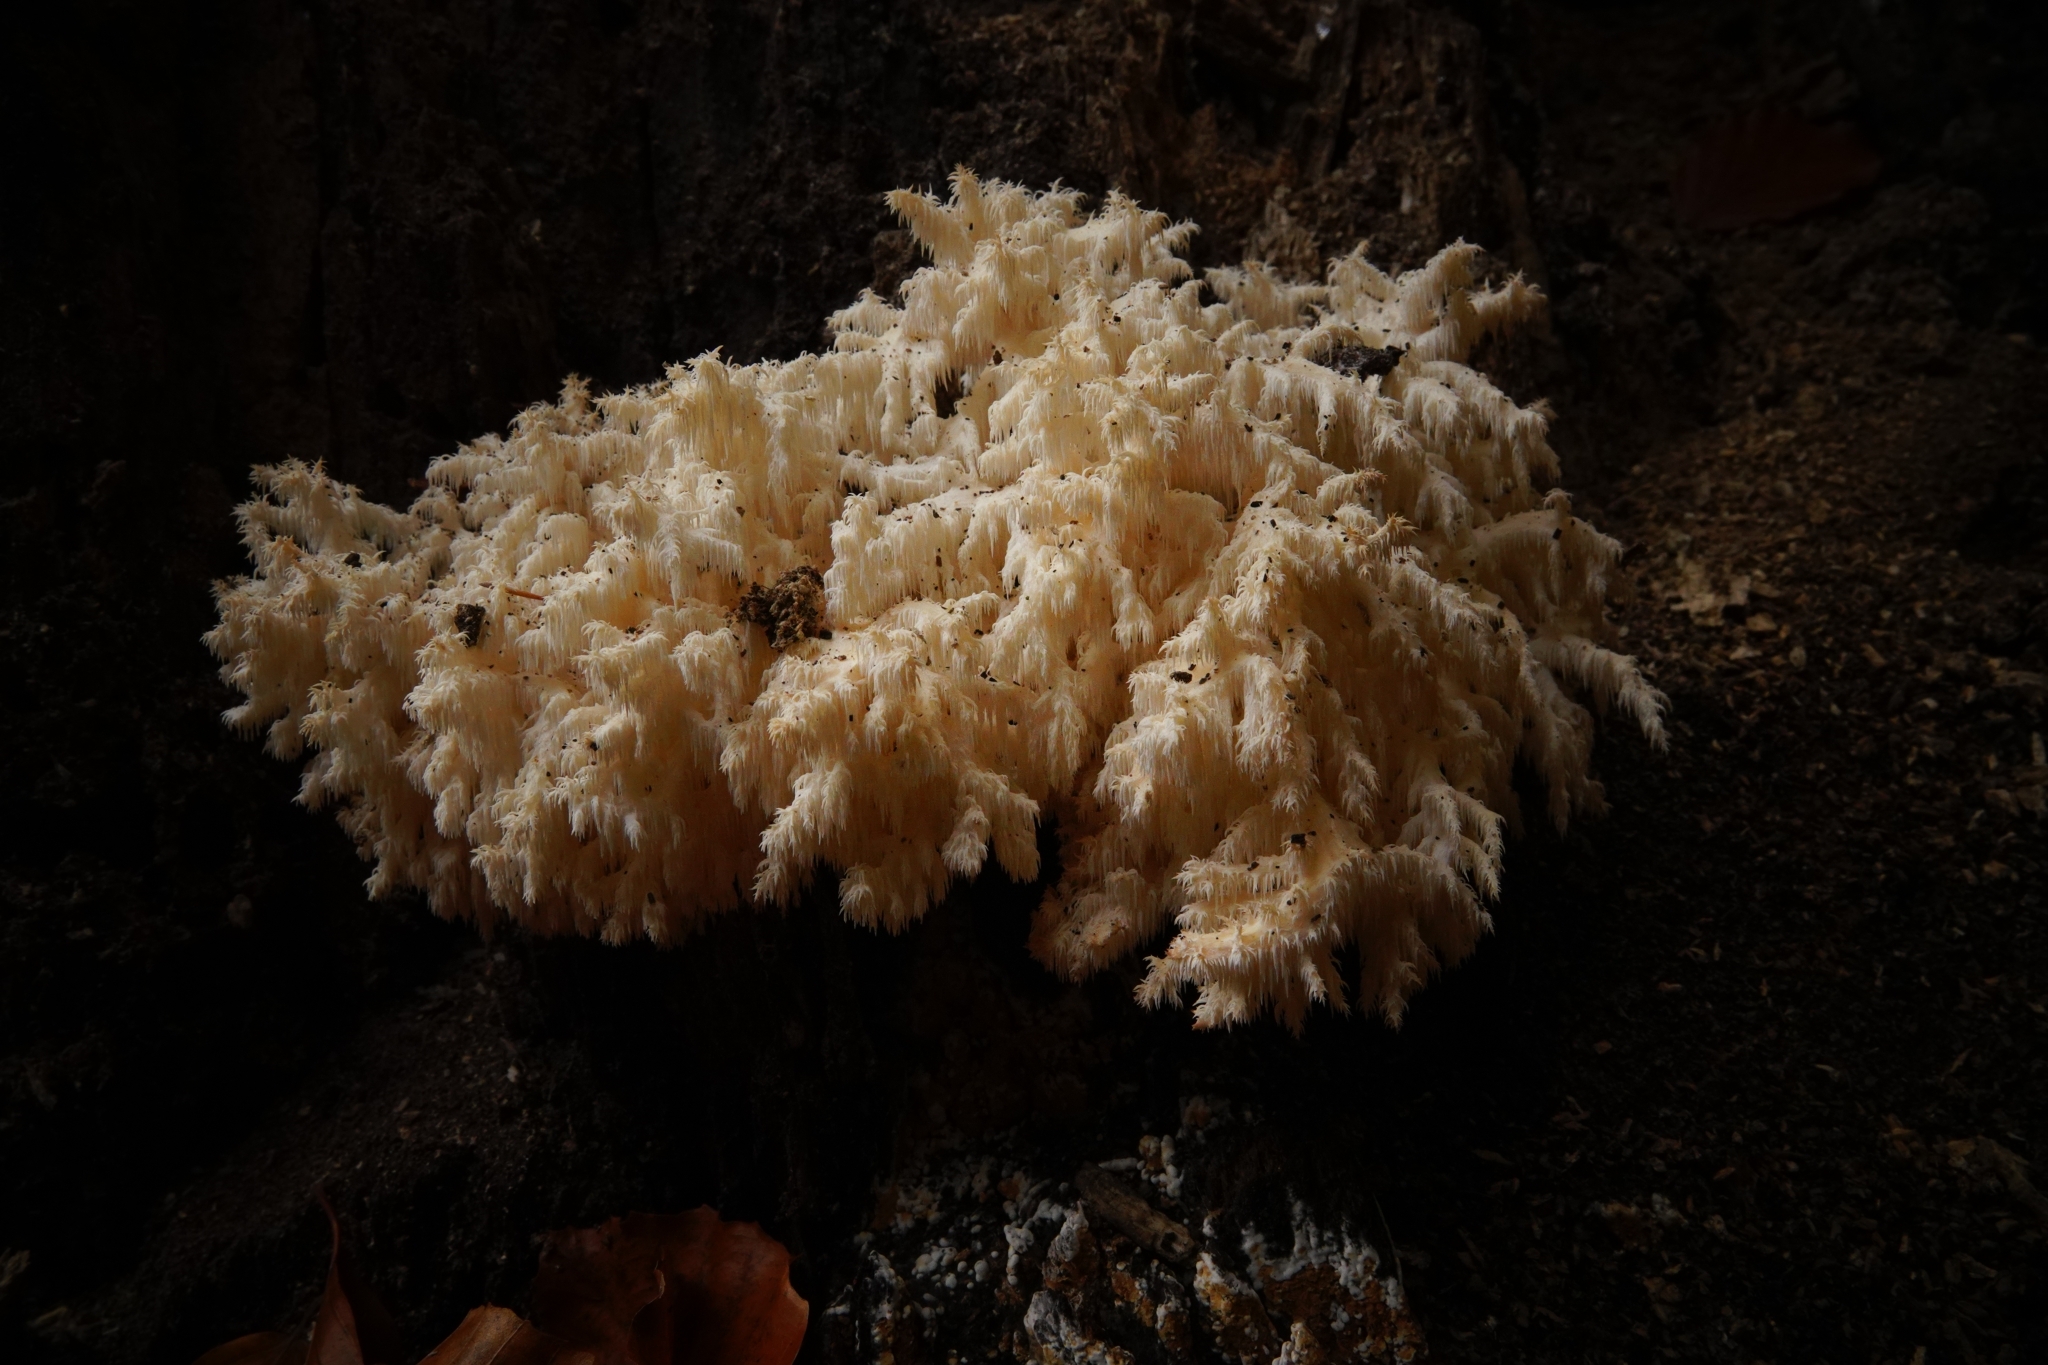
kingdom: Fungi
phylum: Basidiomycota
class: Agaricomycetes
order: Russulales
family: Hericiaceae
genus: Hericium
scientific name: Hericium coralloides
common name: Coral tooth
